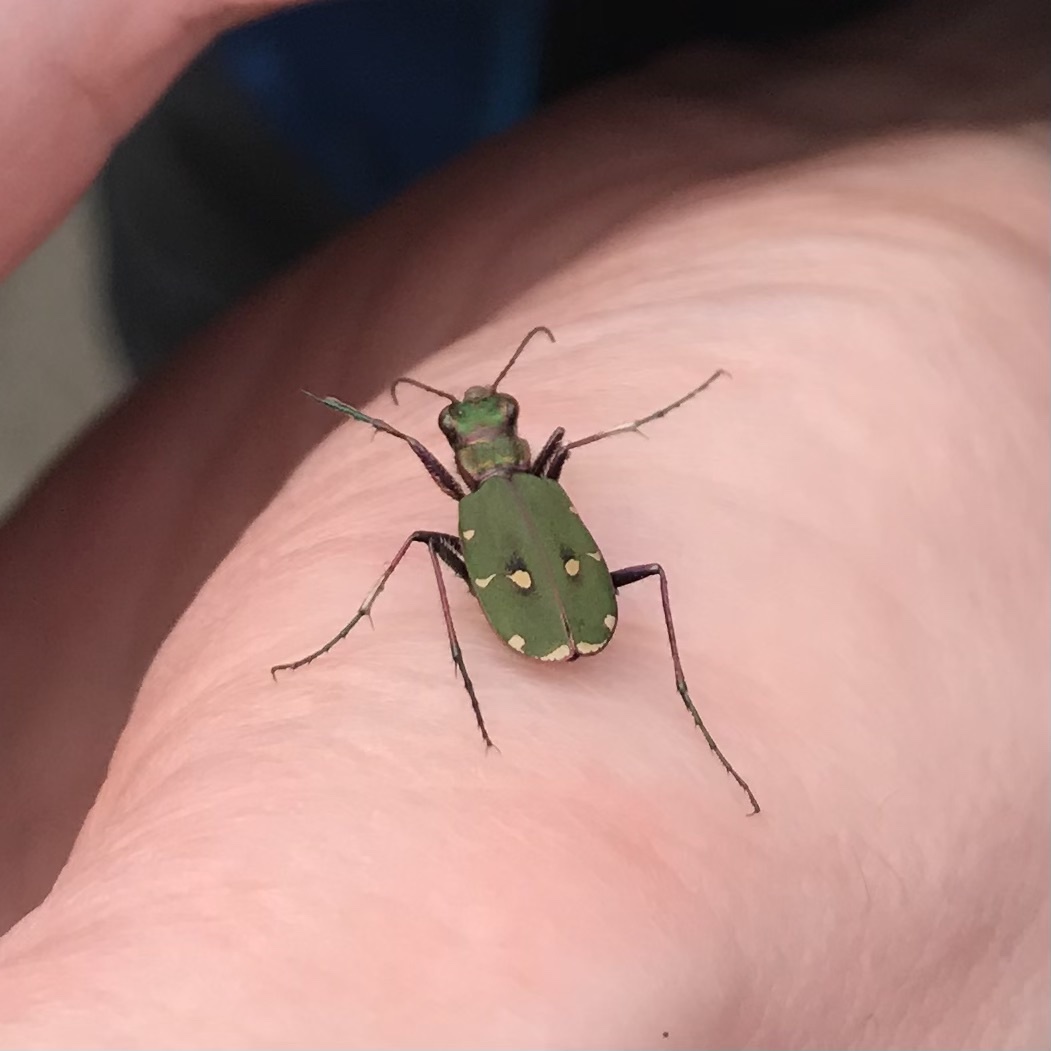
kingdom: Animalia
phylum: Arthropoda
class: Insecta
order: Coleoptera
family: Carabidae
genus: Cicindela
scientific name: Cicindela campestris
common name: Common tiger beetle
